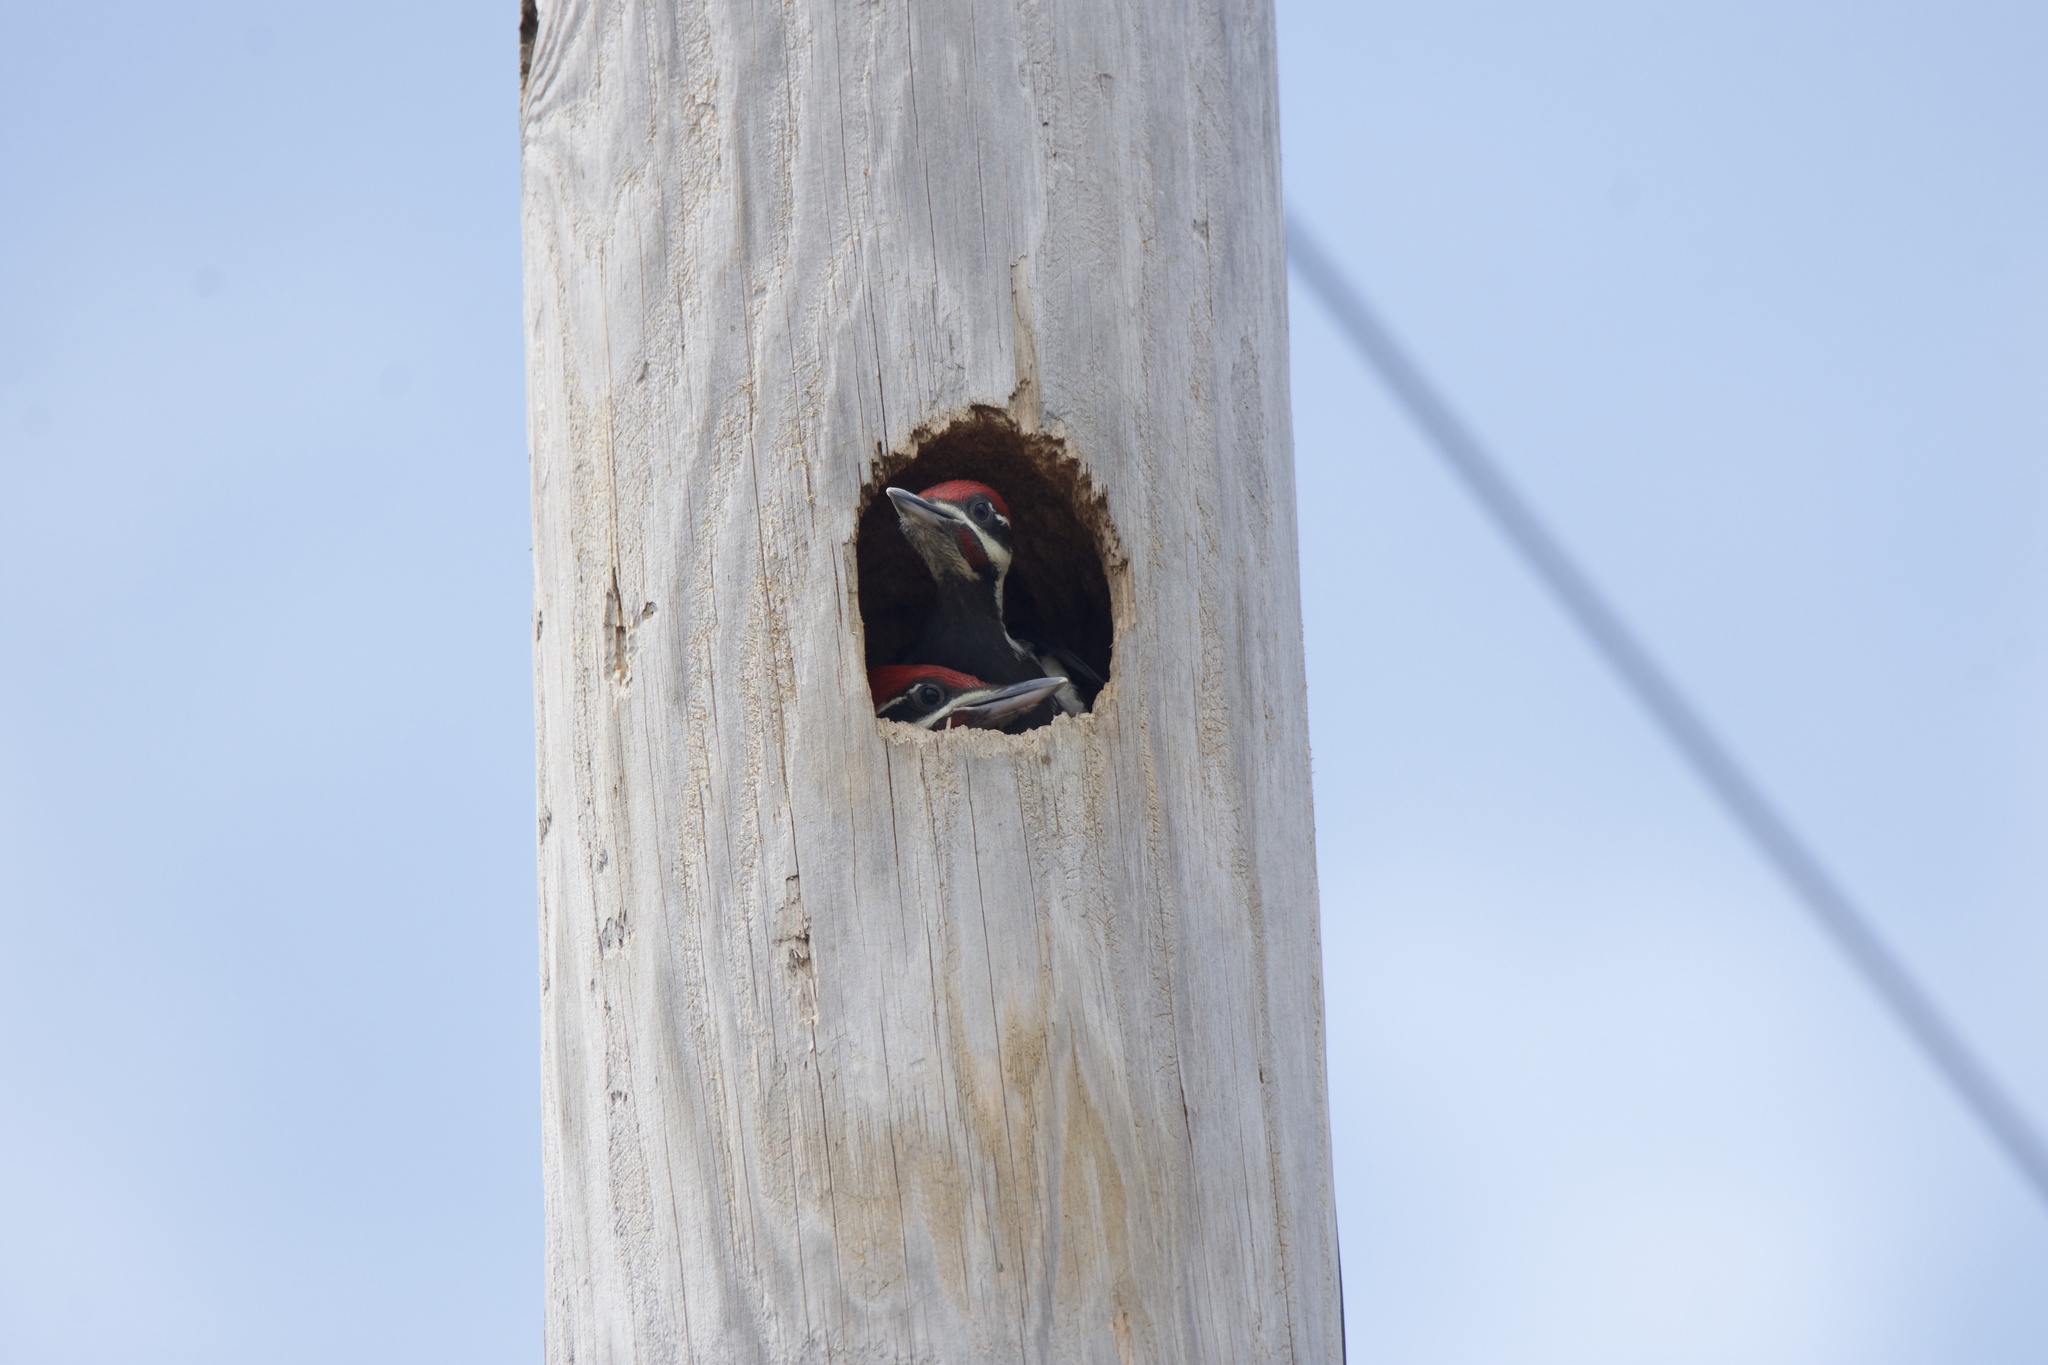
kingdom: Animalia
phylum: Chordata
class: Aves
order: Piciformes
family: Picidae
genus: Dryocopus
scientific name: Dryocopus pileatus
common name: Pileated woodpecker
